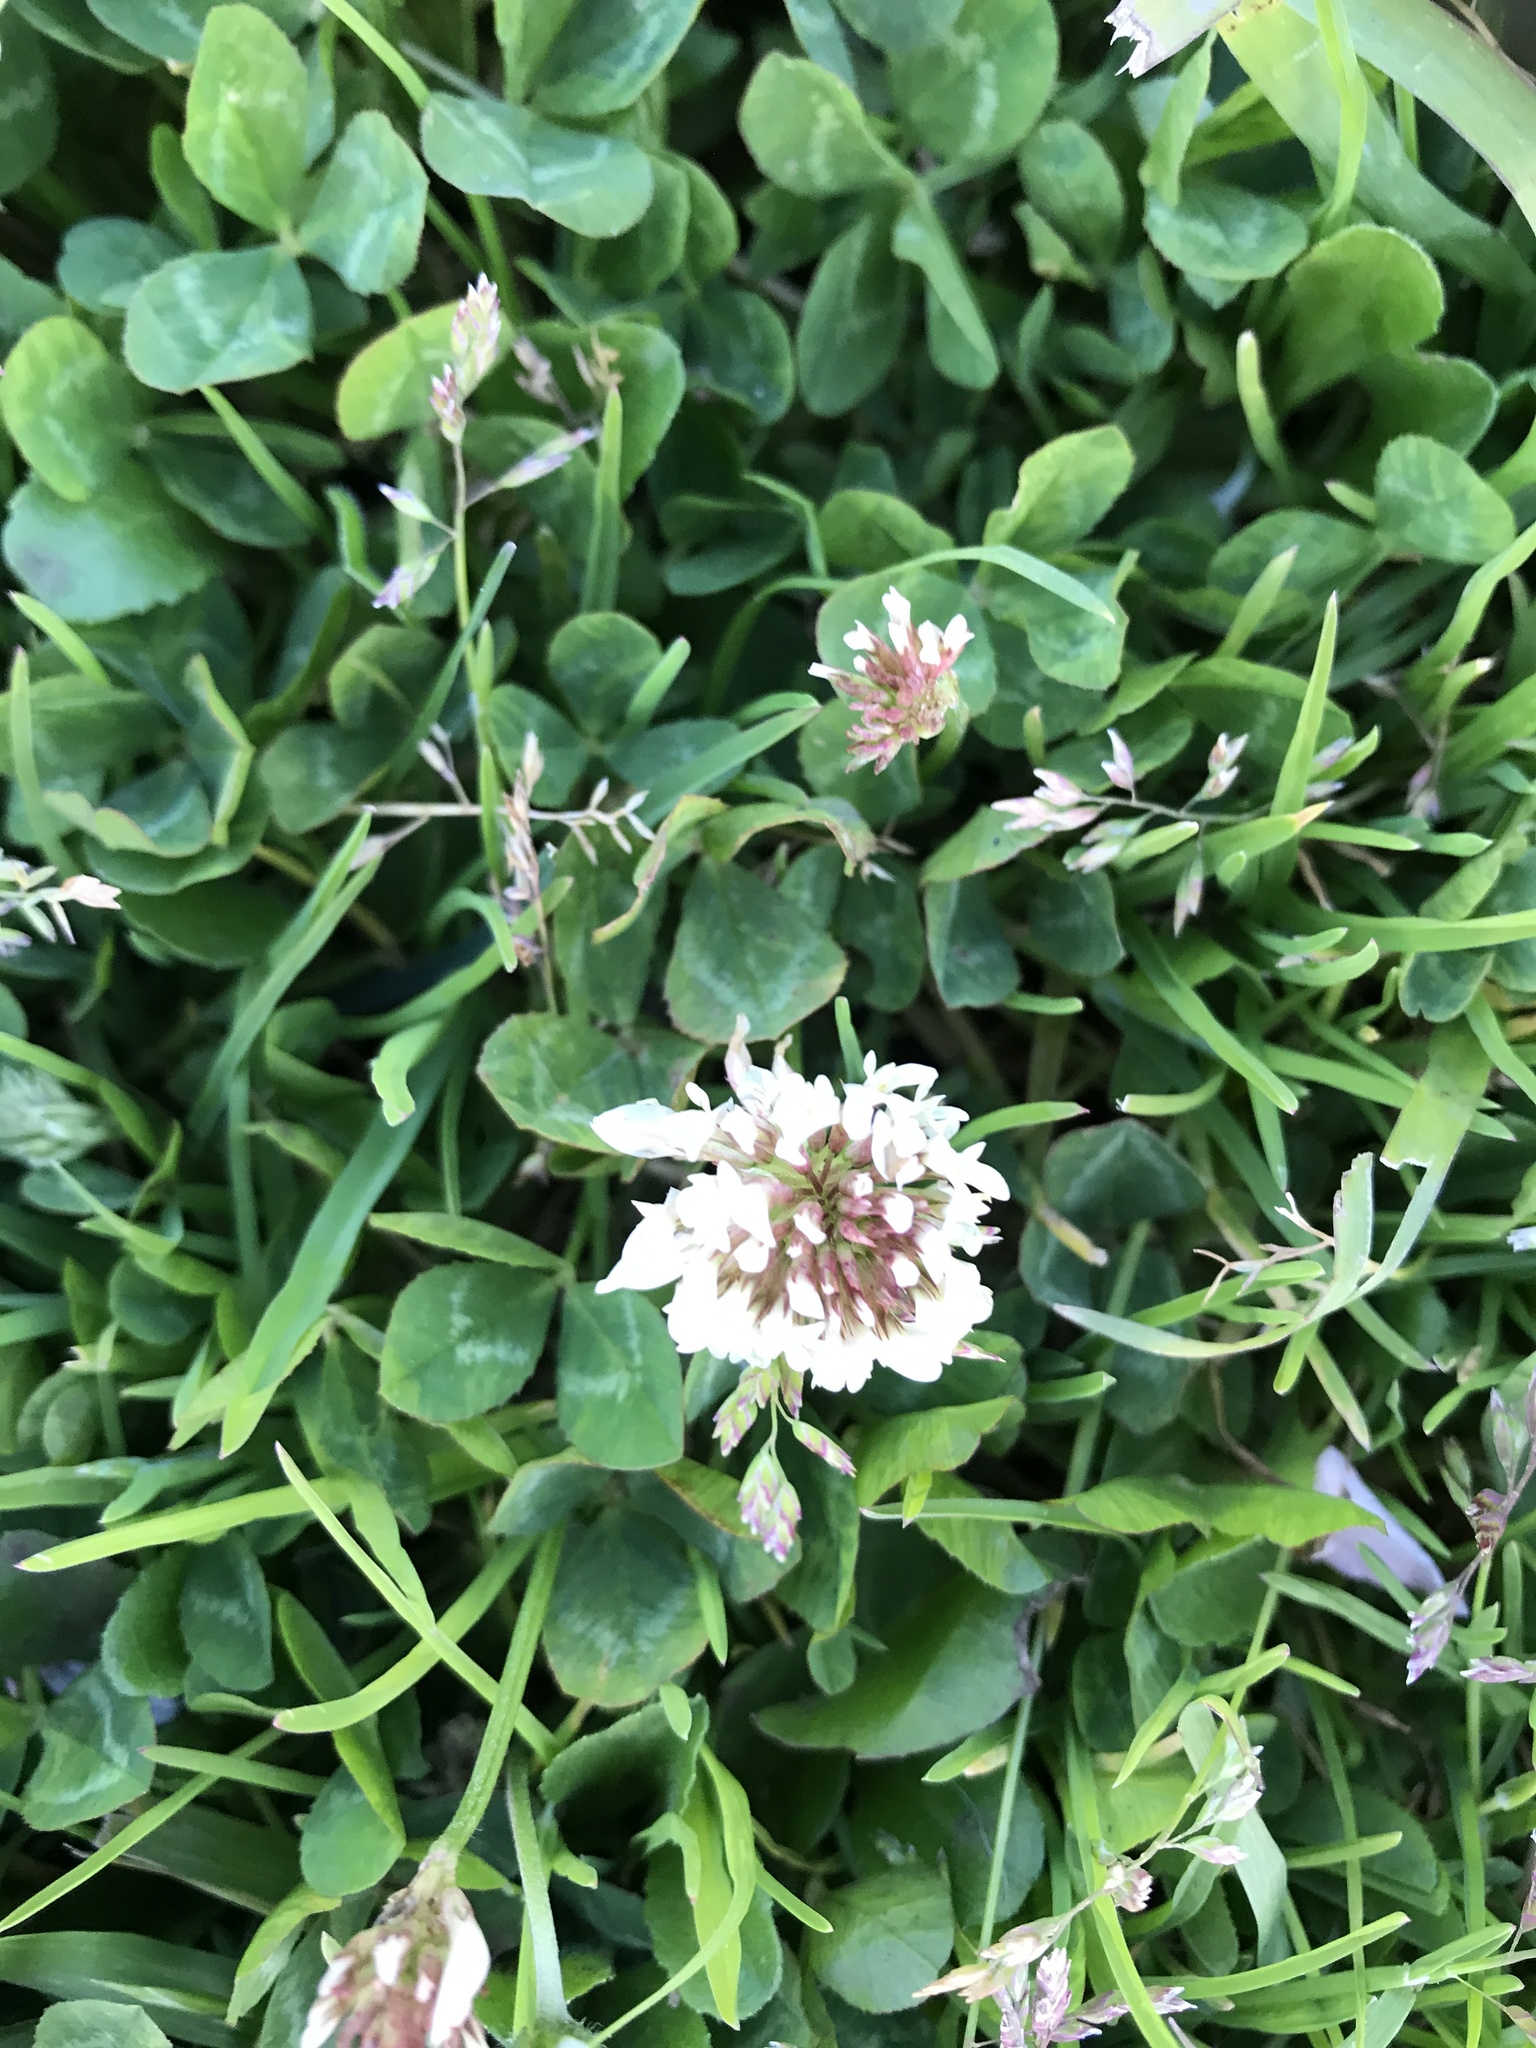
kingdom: Plantae
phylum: Tracheophyta
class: Magnoliopsida
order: Fabales
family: Fabaceae
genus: Trifolium
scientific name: Trifolium repens
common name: White clover
